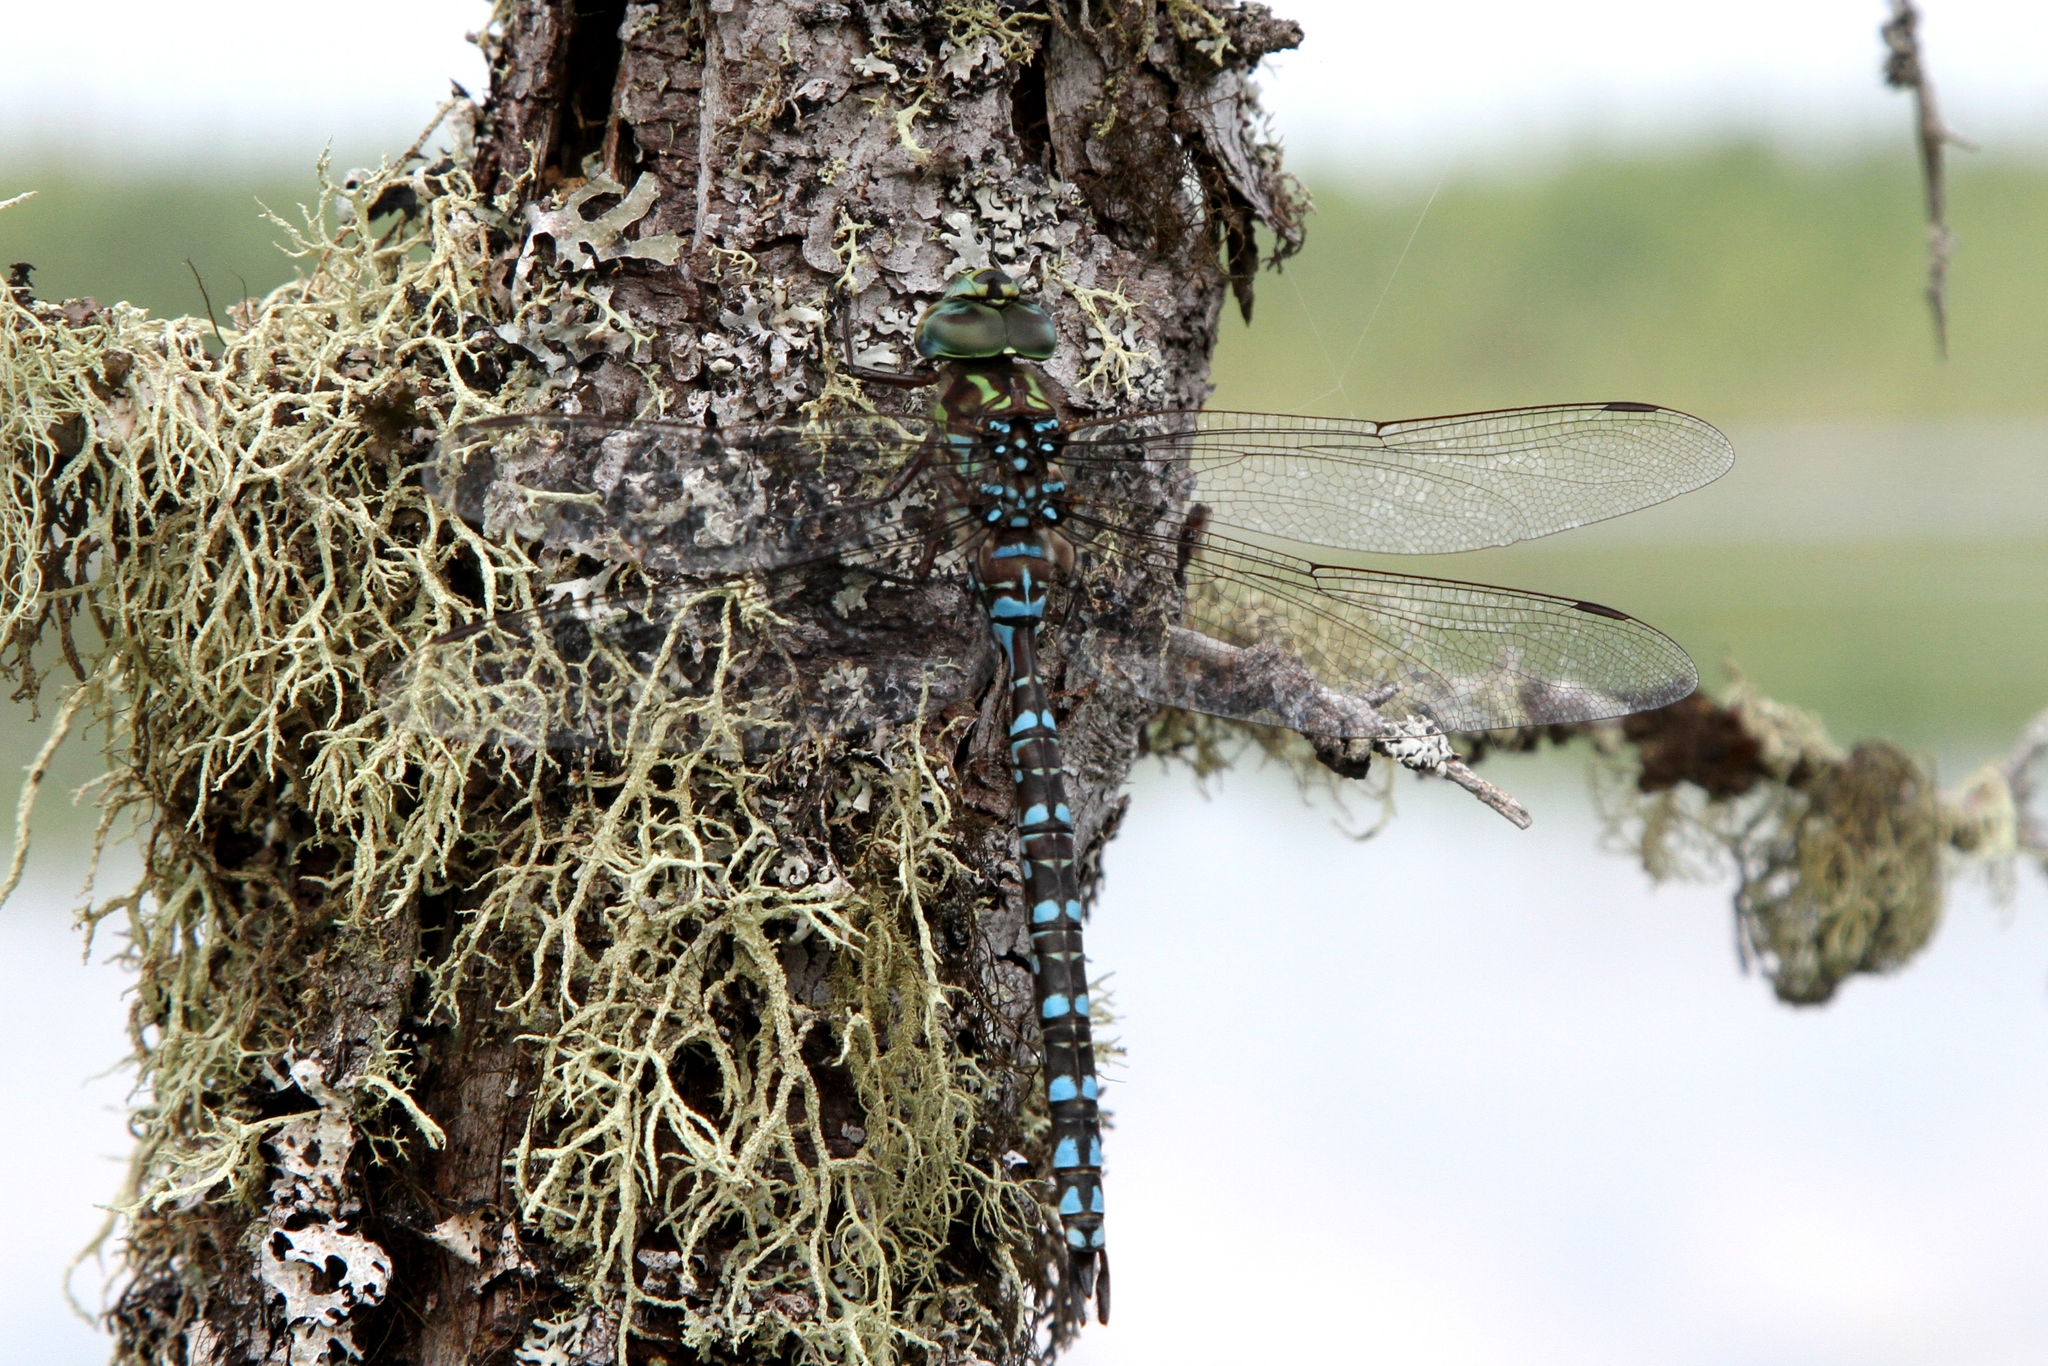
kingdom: Animalia
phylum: Arthropoda
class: Insecta
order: Odonata
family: Aeshnidae
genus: Aeshna
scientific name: Aeshna canadensis
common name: Canada darner
